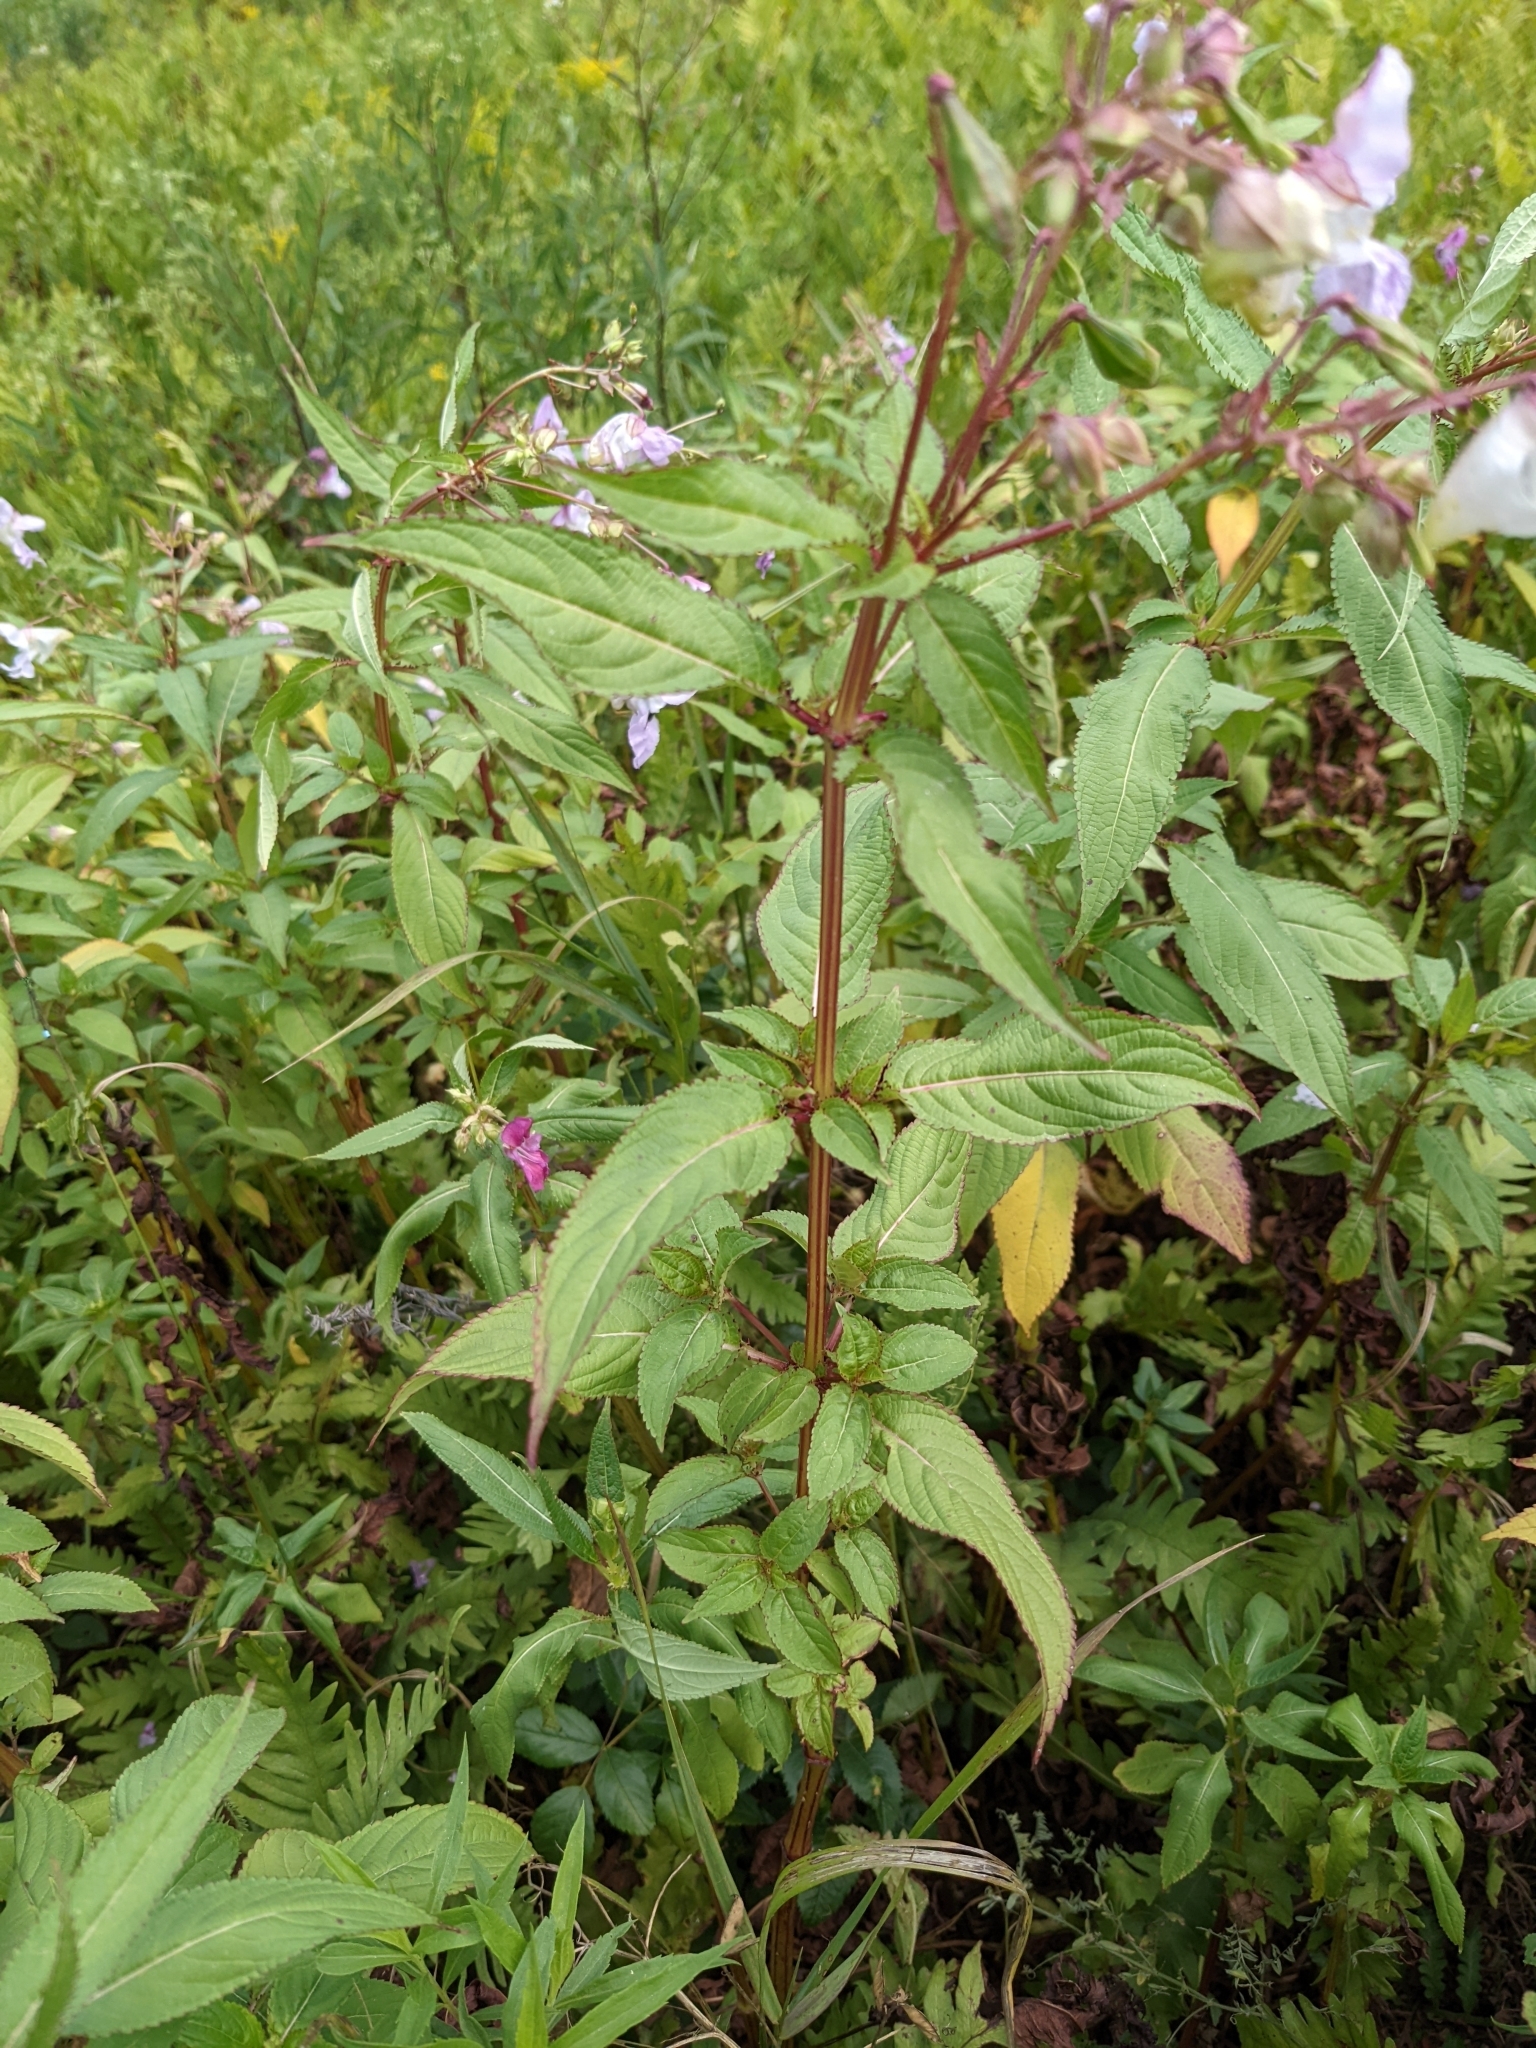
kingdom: Plantae
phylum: Tracheophyta
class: Magnoliopsida
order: Ericales
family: Balsaminaceae
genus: Impatiens
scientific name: Impatiens glandulifera
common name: Himalayan balsam
